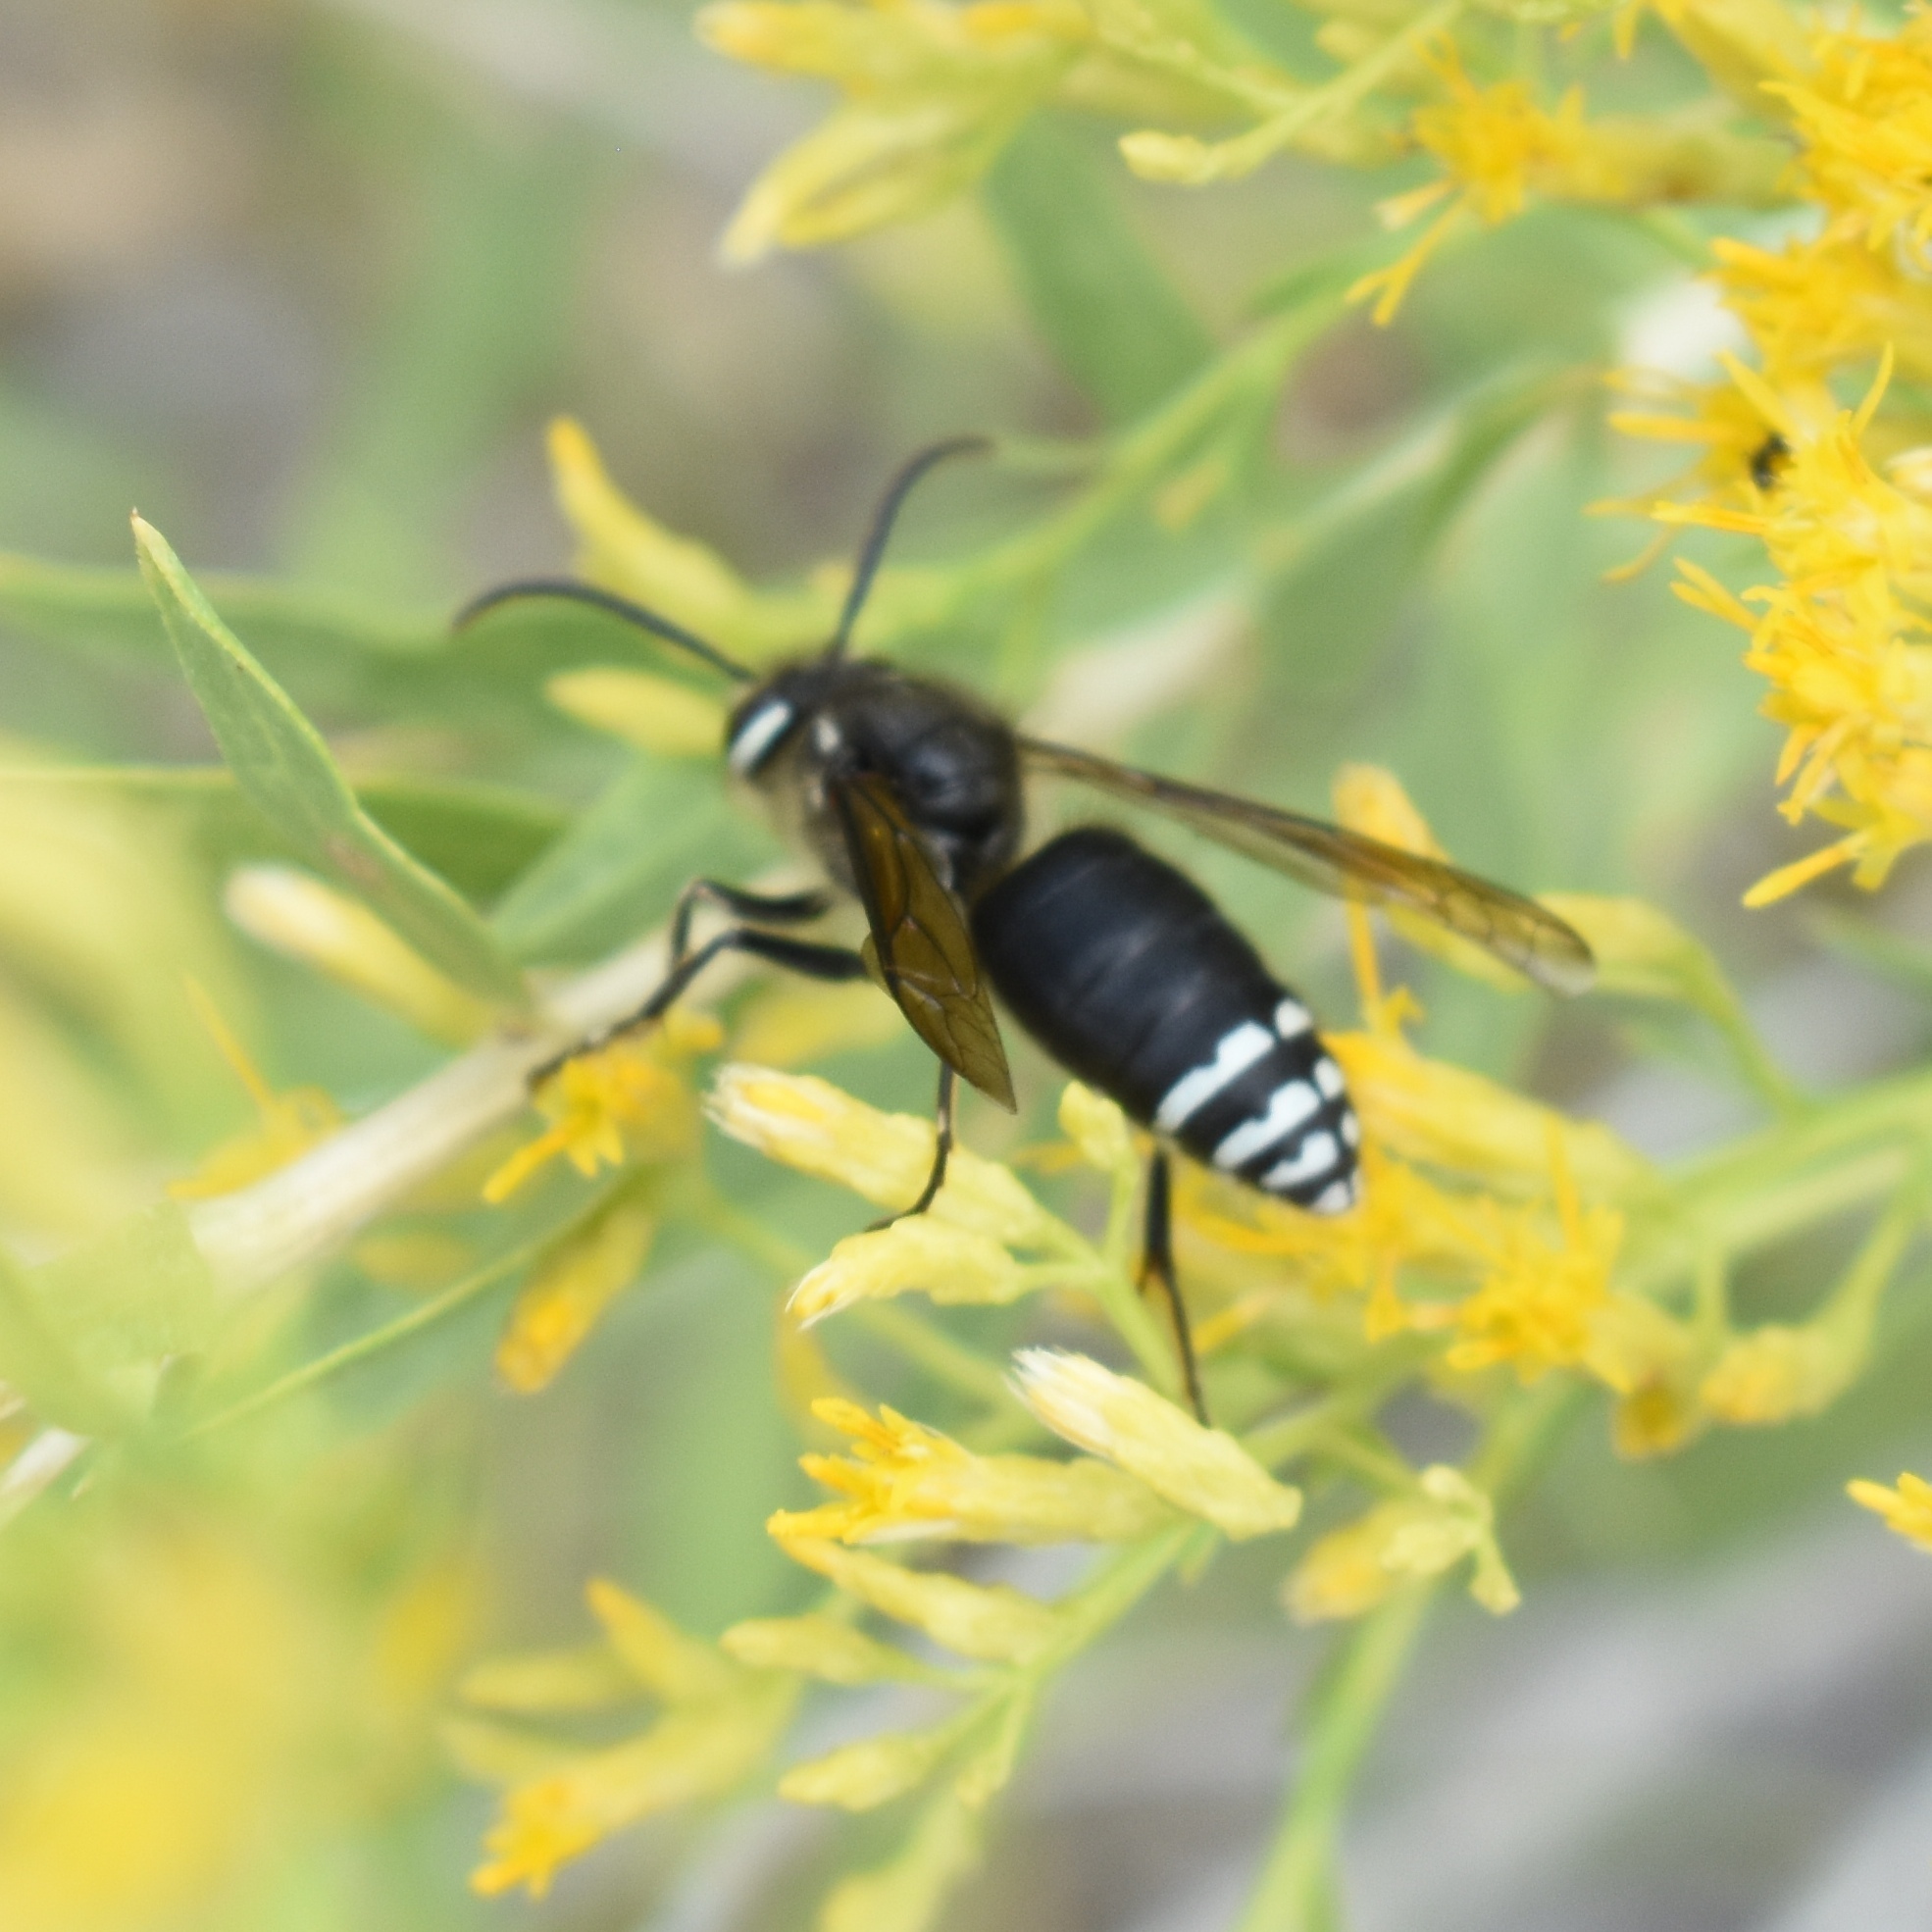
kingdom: Animalia
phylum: Arthropoda
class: Insecta
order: Hymenoptera
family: Vespidae
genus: Dolichovespula
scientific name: Dolichovespula maculata
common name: Bald-faced hornet
